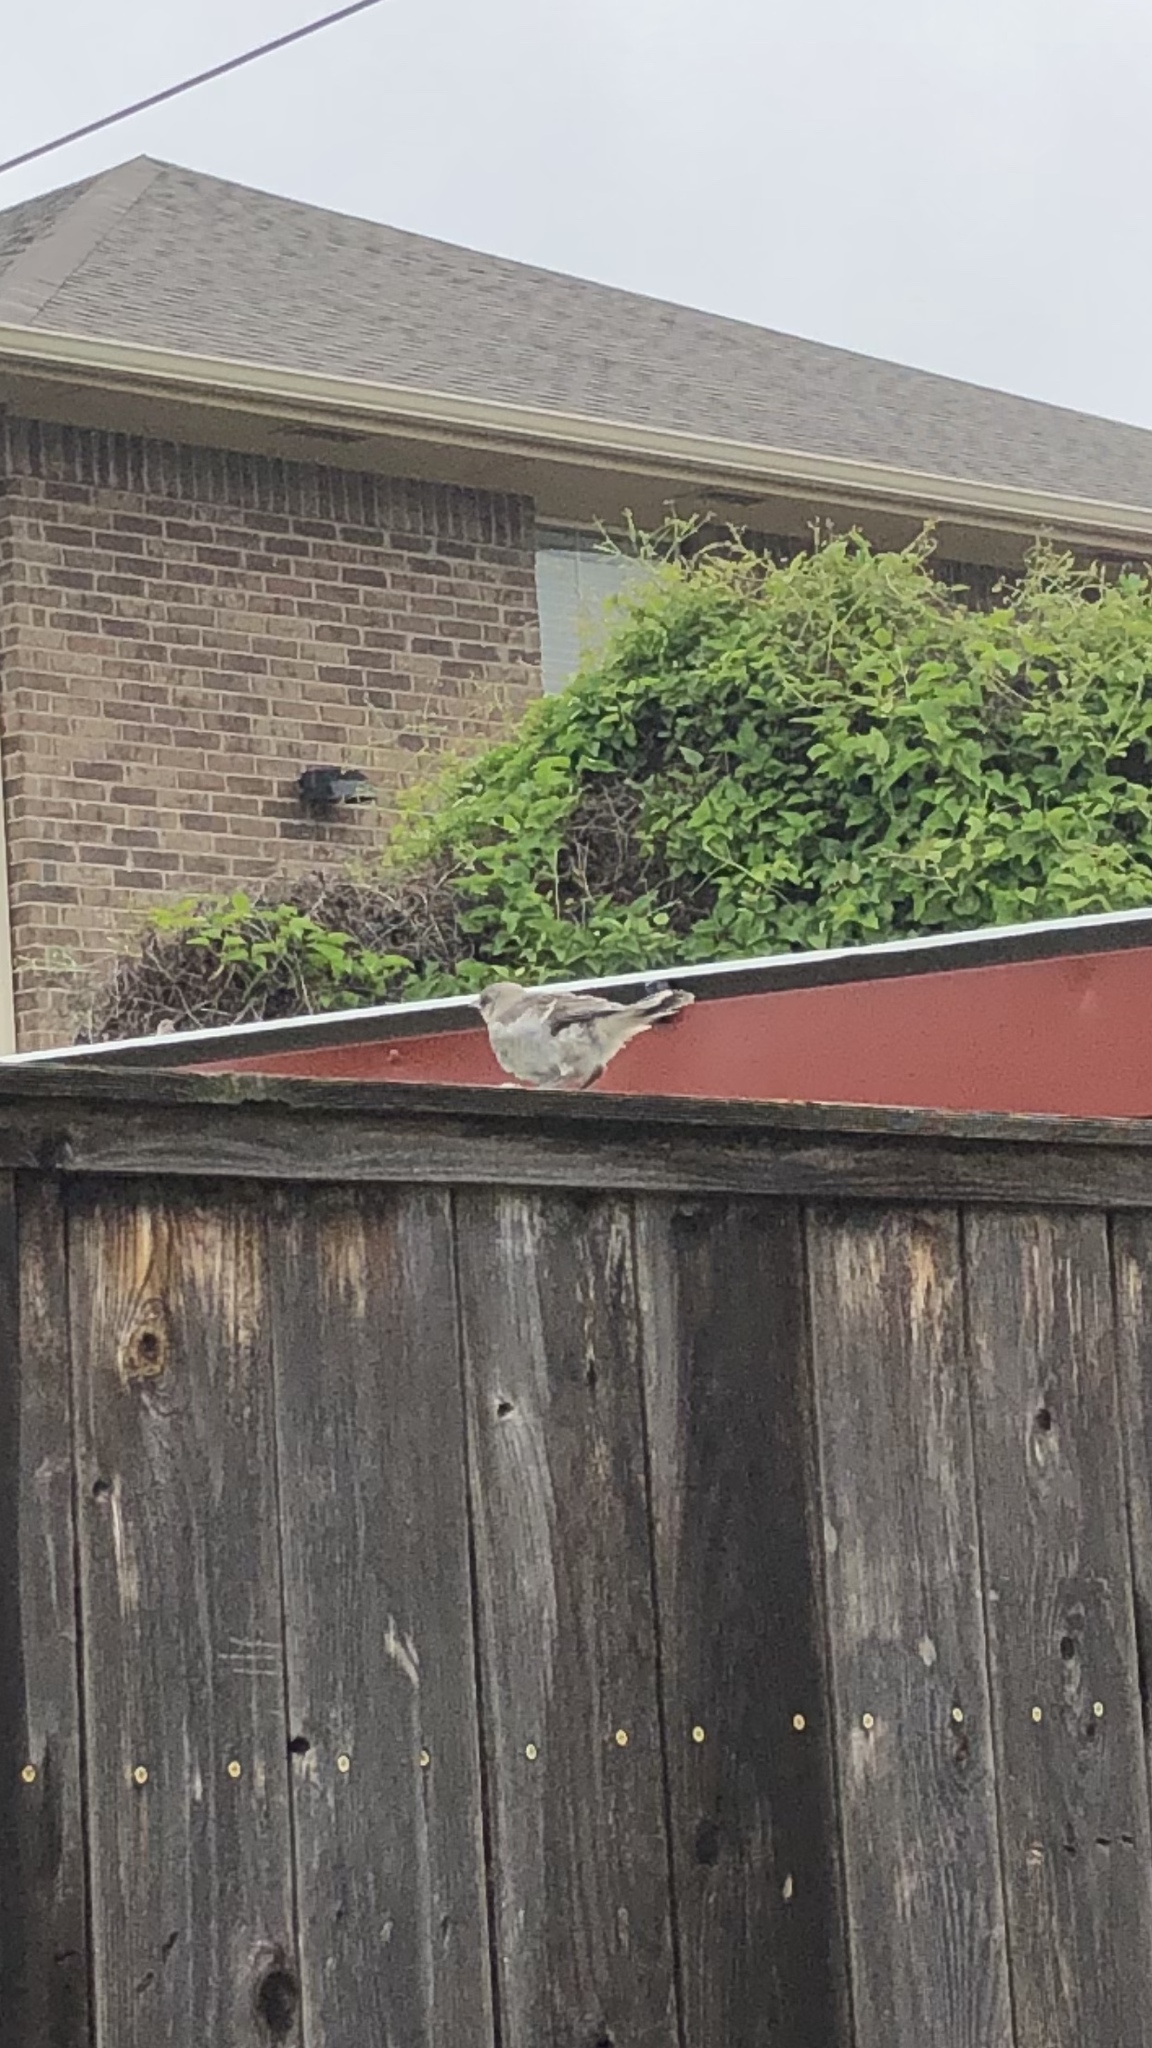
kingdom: Animalia
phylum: Chordata
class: Aves
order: Passeriformes
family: Mimidae
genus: Mimus
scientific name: Mimus polyglottos
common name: Northern mockingbird
